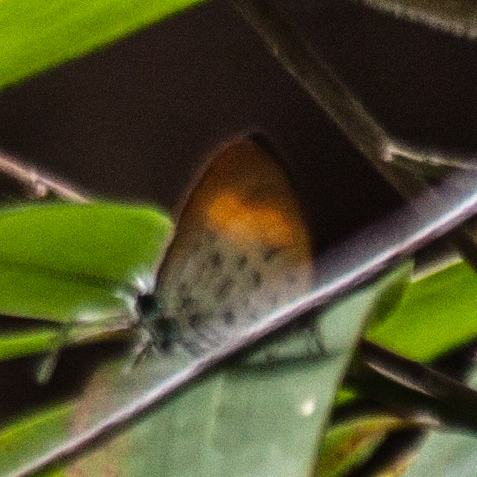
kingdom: Animalia
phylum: Arthropoda
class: Insecta
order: Lepidoptera
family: Lycaenidae
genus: Drupadia
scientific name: Drupadia theda
